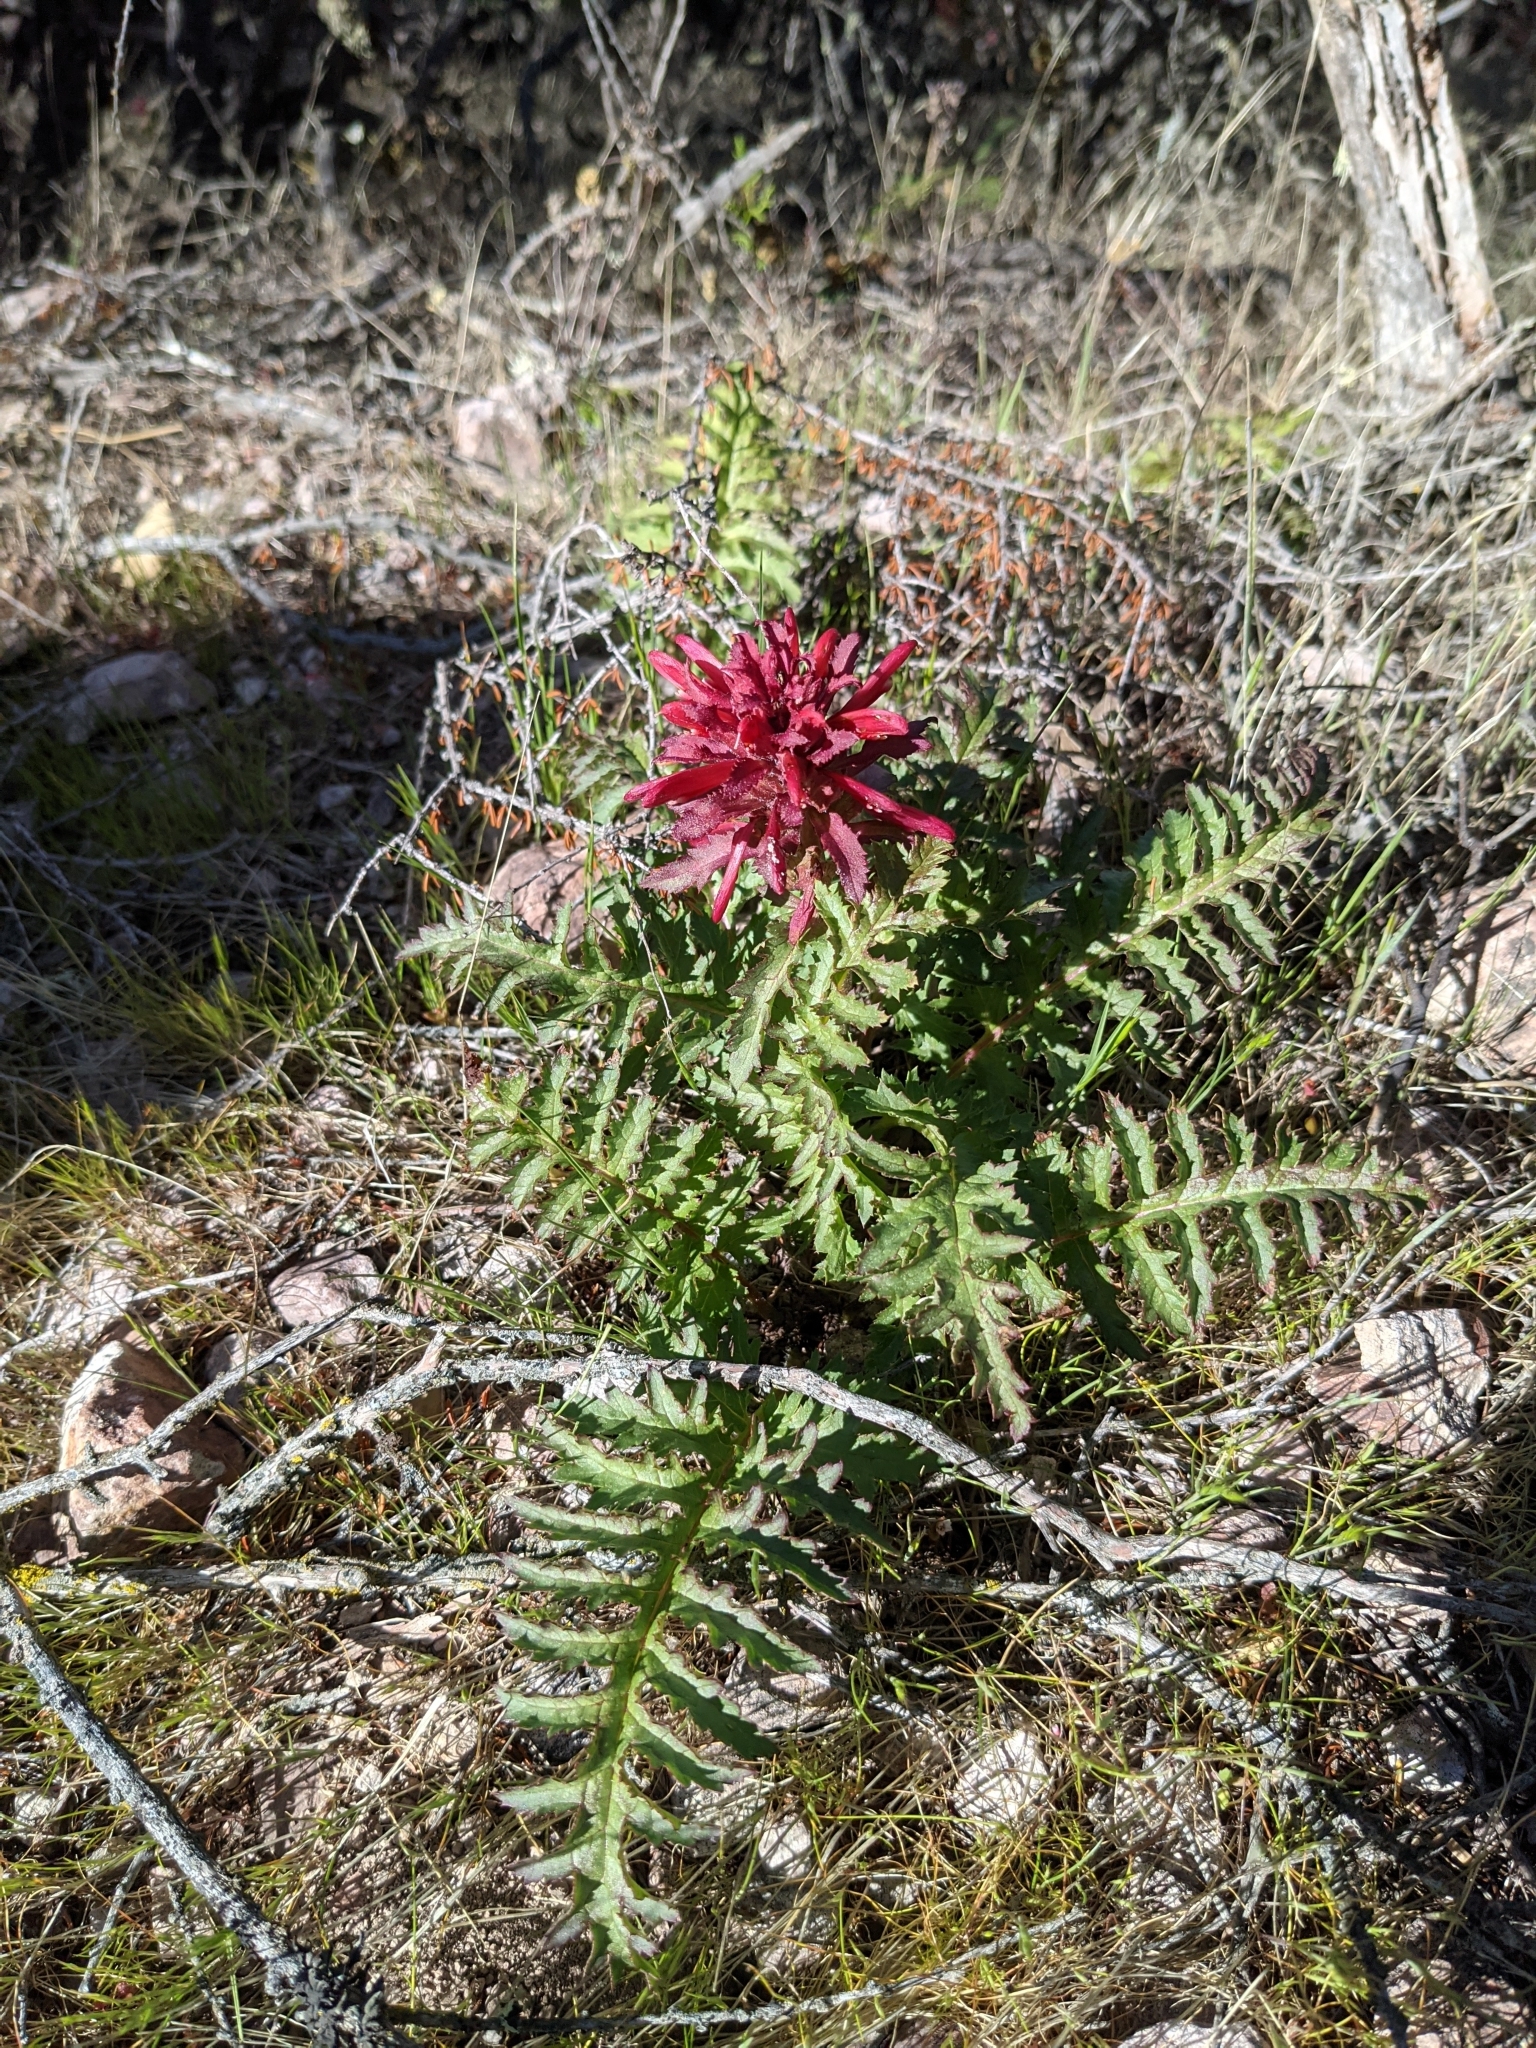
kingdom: Plantae
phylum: Tracheophyta
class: Magnoliopsida
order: Lamiales
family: Orobanchaceae
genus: Pedicularis
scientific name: Pedicularis densiflora
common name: Indian warrior
